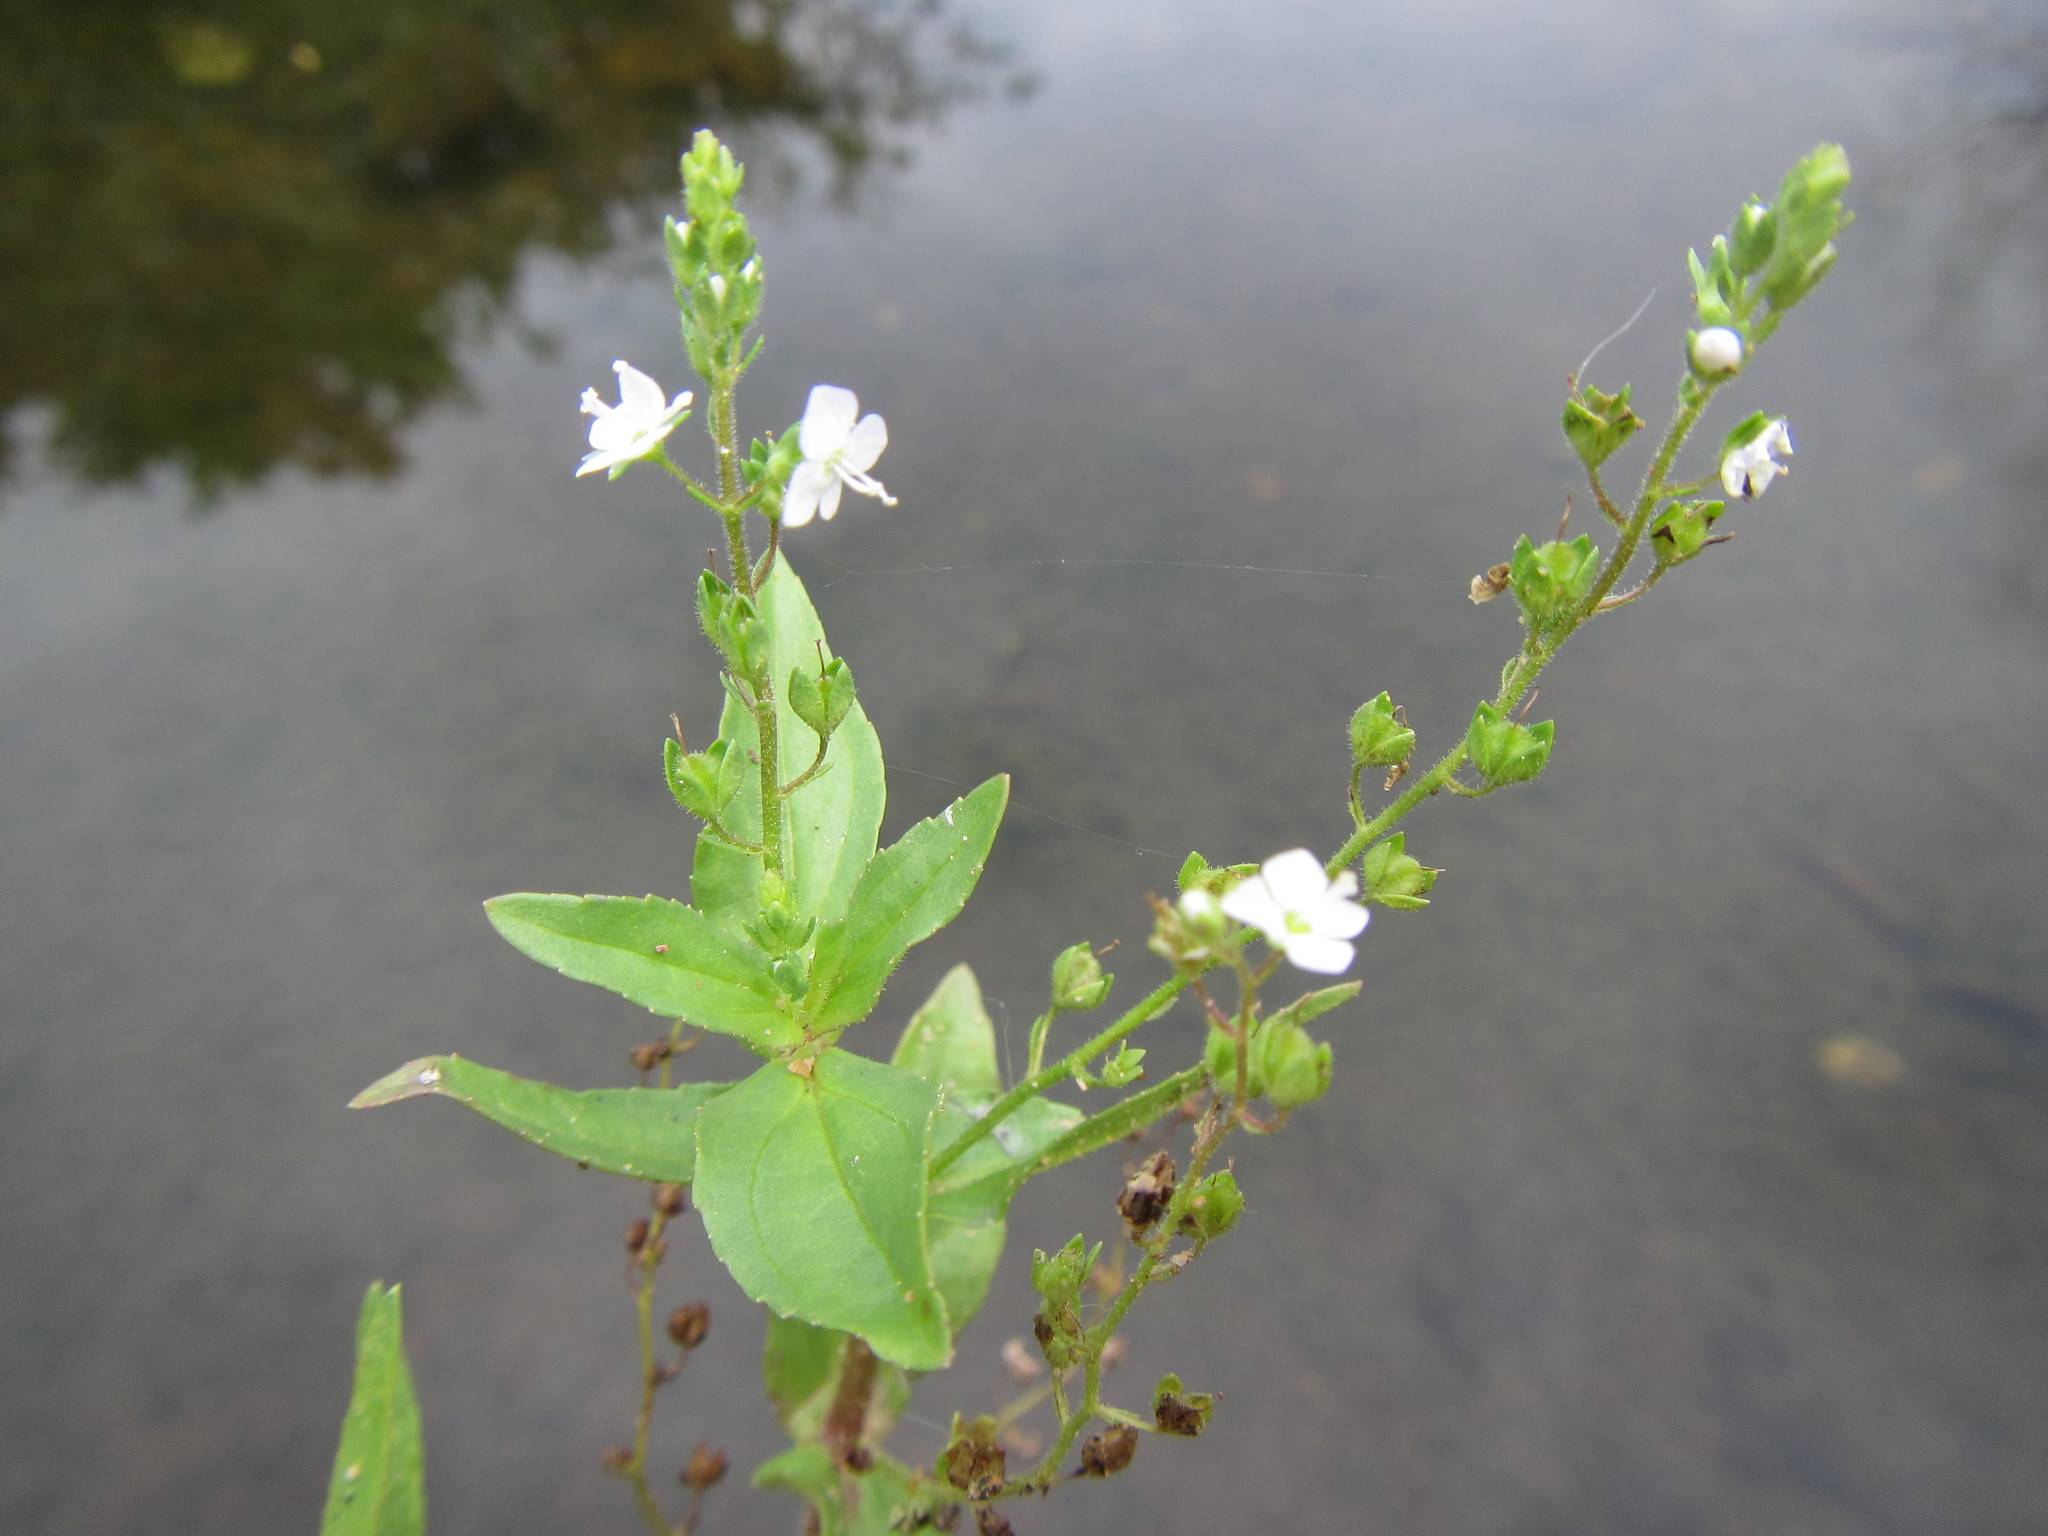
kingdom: Plantae
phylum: Tracheophyta
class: Magnoliopsida
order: Lamiales
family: Plantaginaceae
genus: Veronica
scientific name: Veronica anagallis-aquatica
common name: Water speedwell
